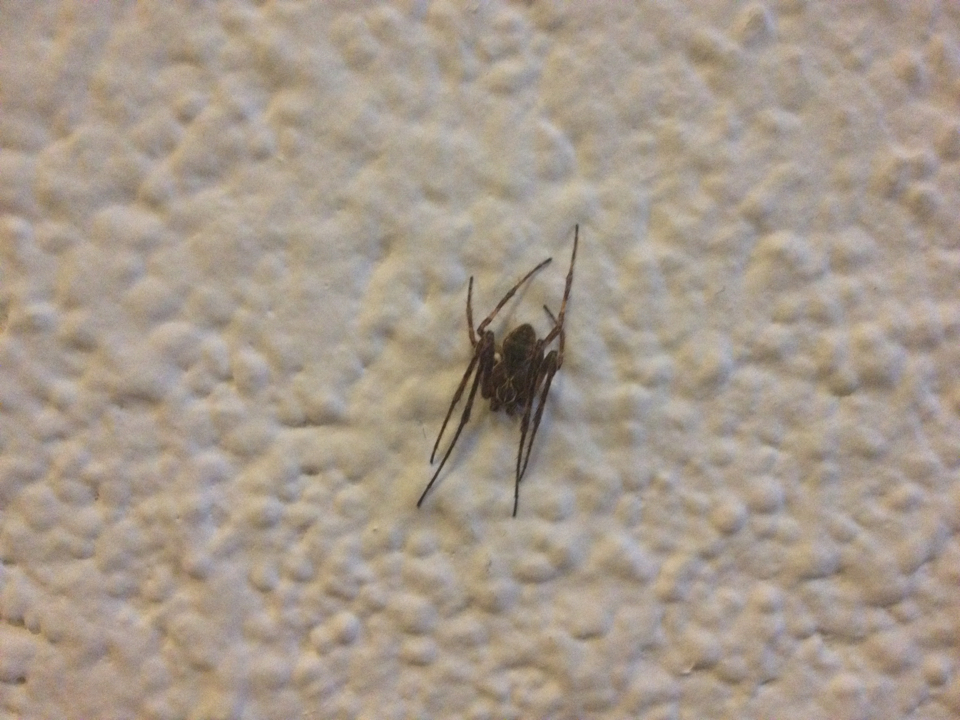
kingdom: Animalia
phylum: Arthropoda
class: Arachnida
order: Araneae
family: Araneidae
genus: Larinioides
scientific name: Larinioides sclopetarius
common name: Bridge orbweaver
